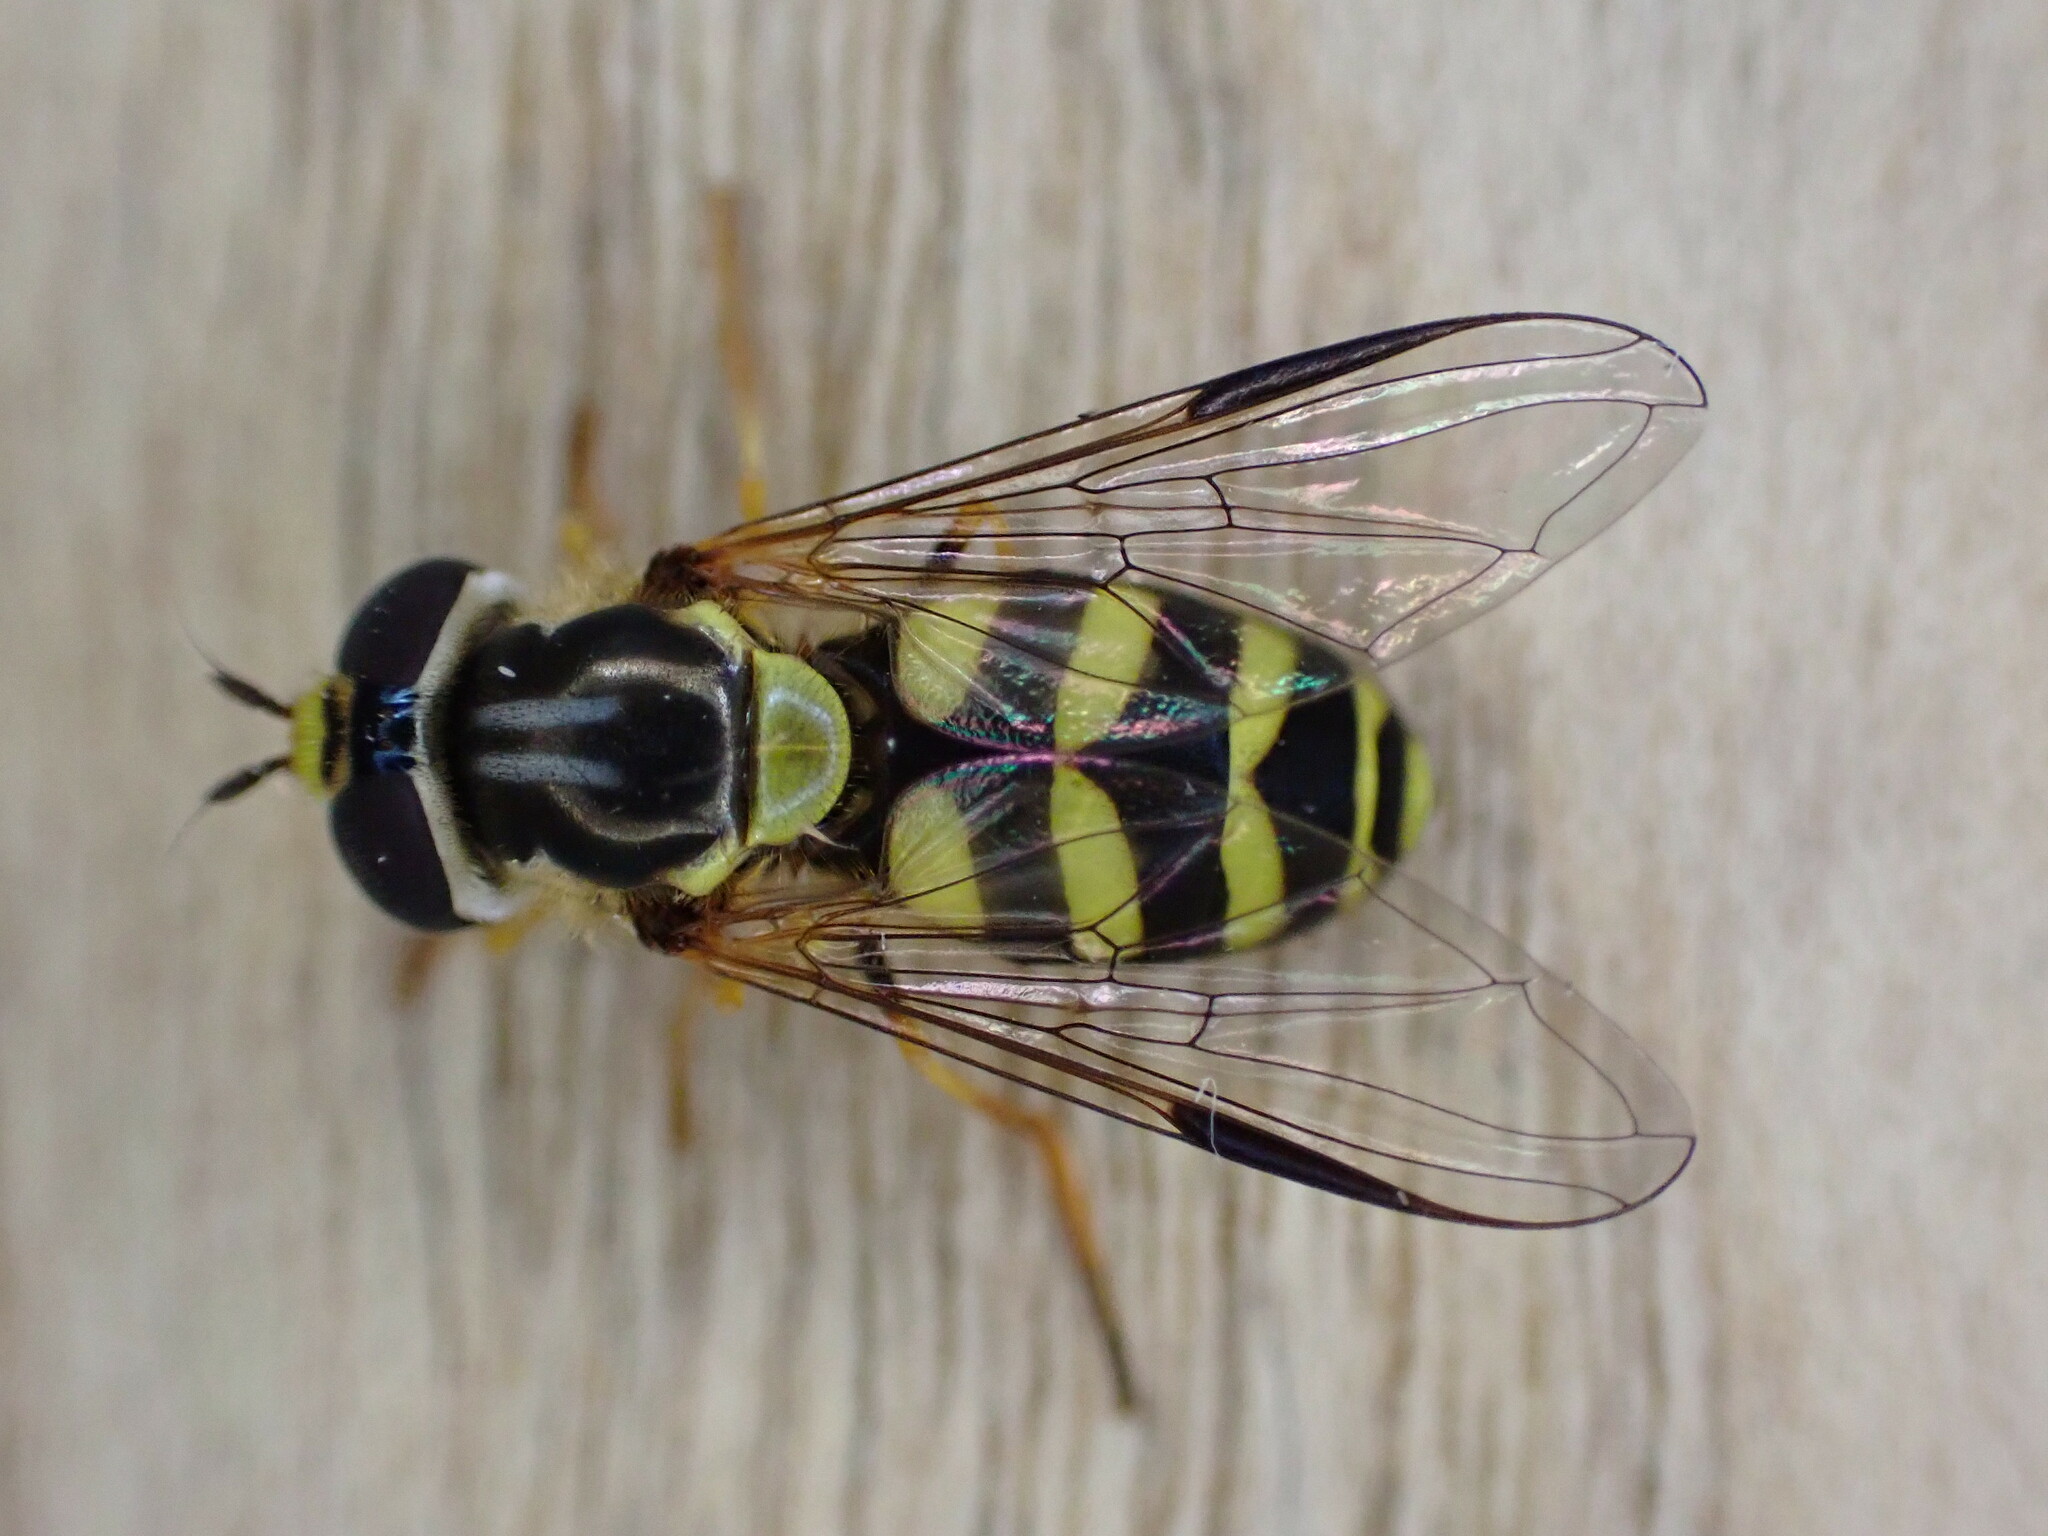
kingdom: Animalia
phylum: Arthropoda
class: Insecta
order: Diptera
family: Syrphidae
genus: Dasysyrphus
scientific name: Dasysyrphus albostriatus
